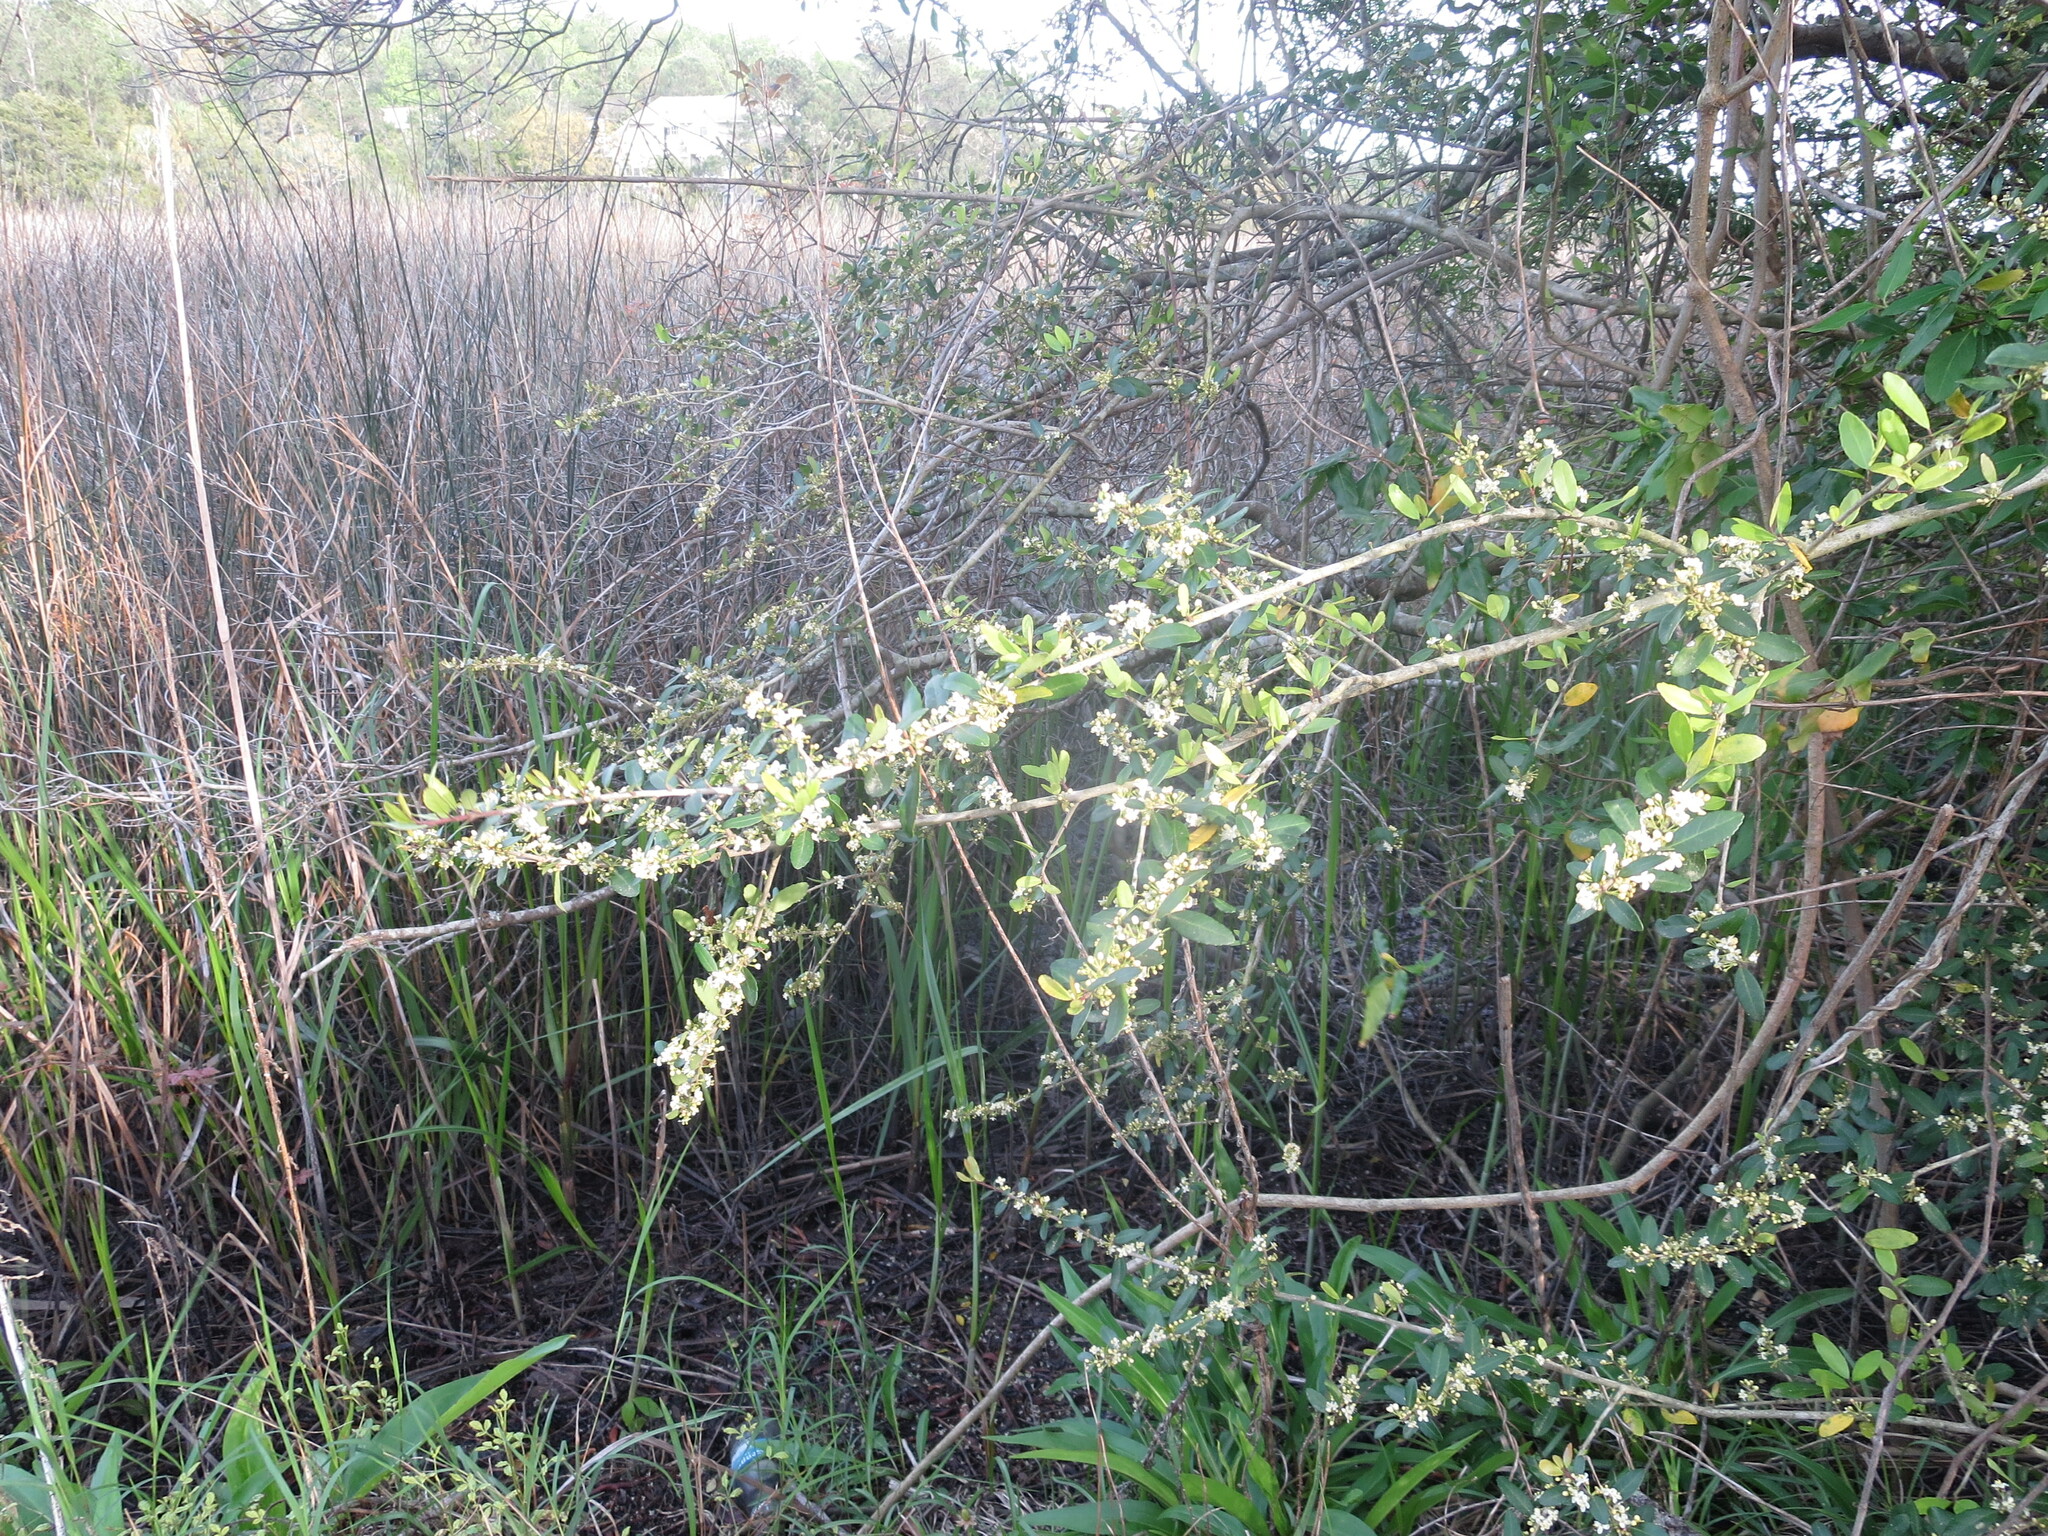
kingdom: Plantae
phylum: Tracheophyta
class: Magnoliopsida
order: Aquifoliales
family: Aquifoliaceae
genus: Ilex
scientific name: Ilex vomitoria
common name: Yaupon holly
